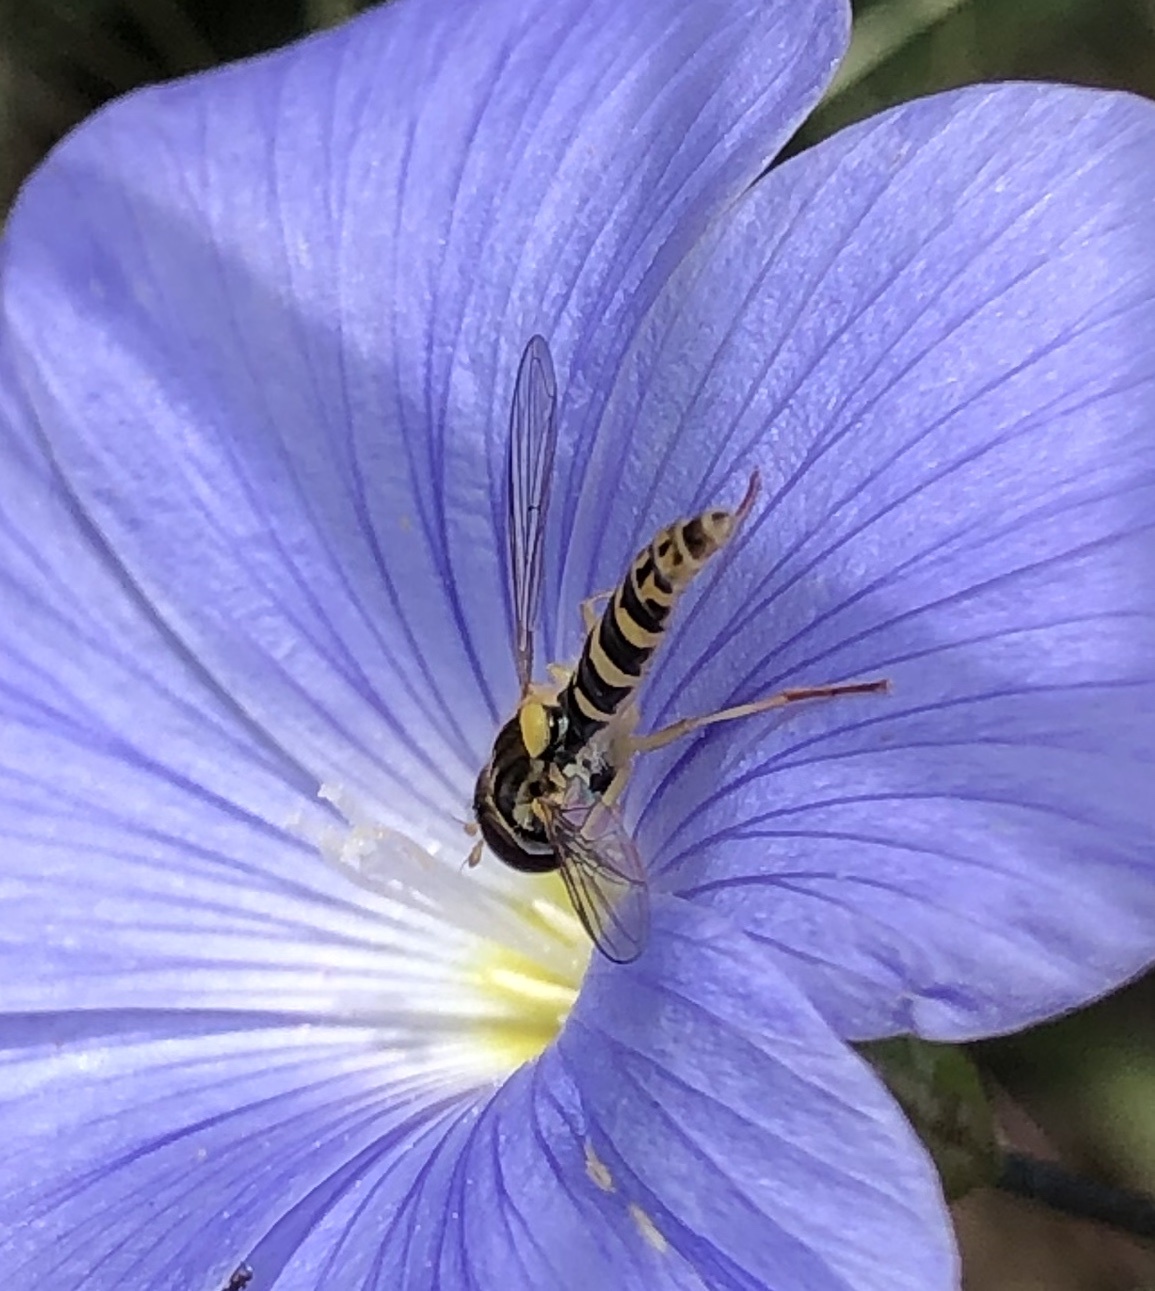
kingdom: Animalia
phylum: Arthropoda
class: Insecta
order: Diptera
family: Syrphidae
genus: Sphaerophoria
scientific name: Sphaerophoria
